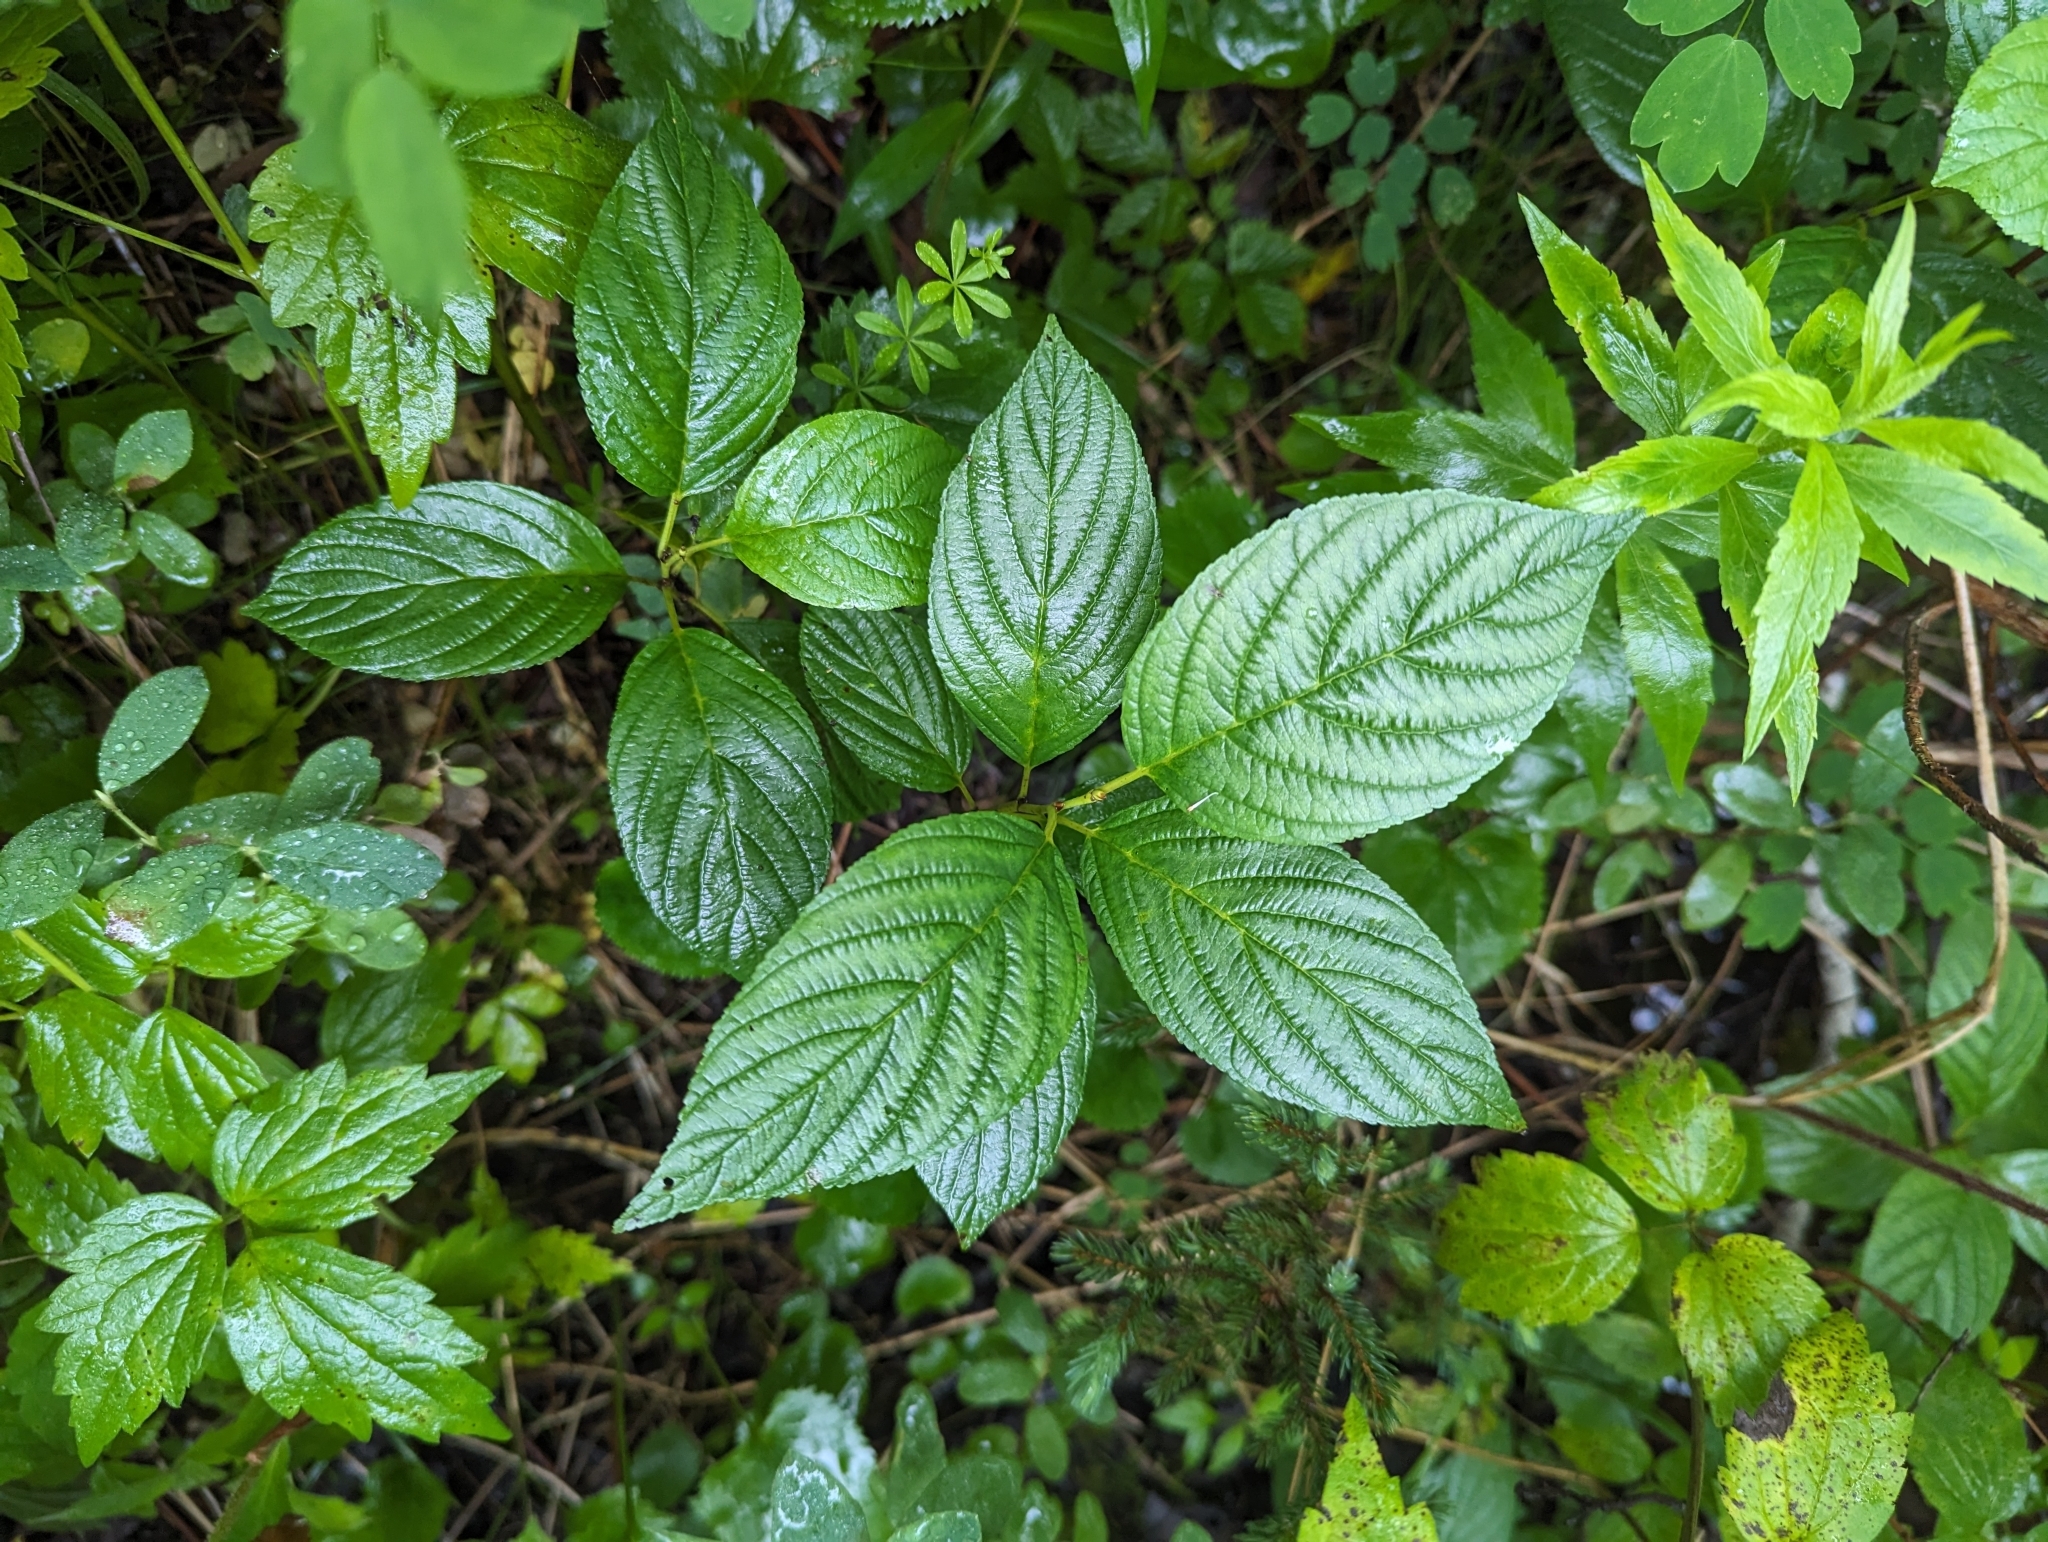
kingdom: Plantae
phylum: Tracheophyta
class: Magnoliopsida
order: Rosales
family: Rhamnaceae
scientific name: Rhamnaceae
